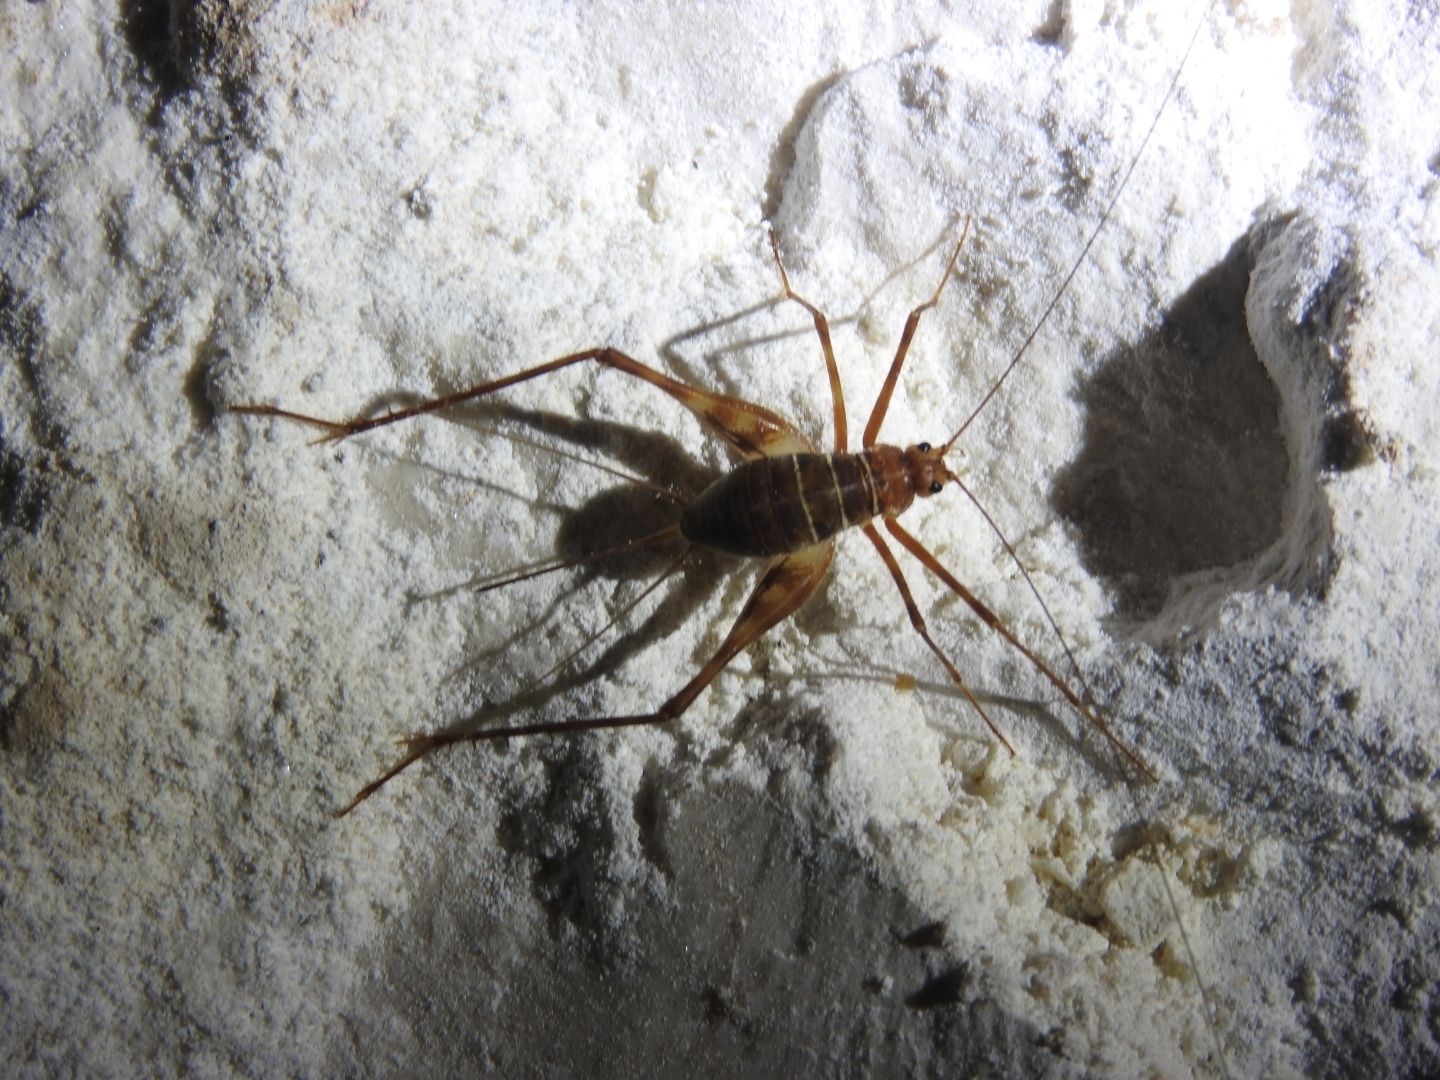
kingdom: Animalia
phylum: Arthropoda
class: Insecta
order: Orthoptera
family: Phalangopsidae
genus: Mayagryllus
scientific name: Mayagryllus yucatanus
